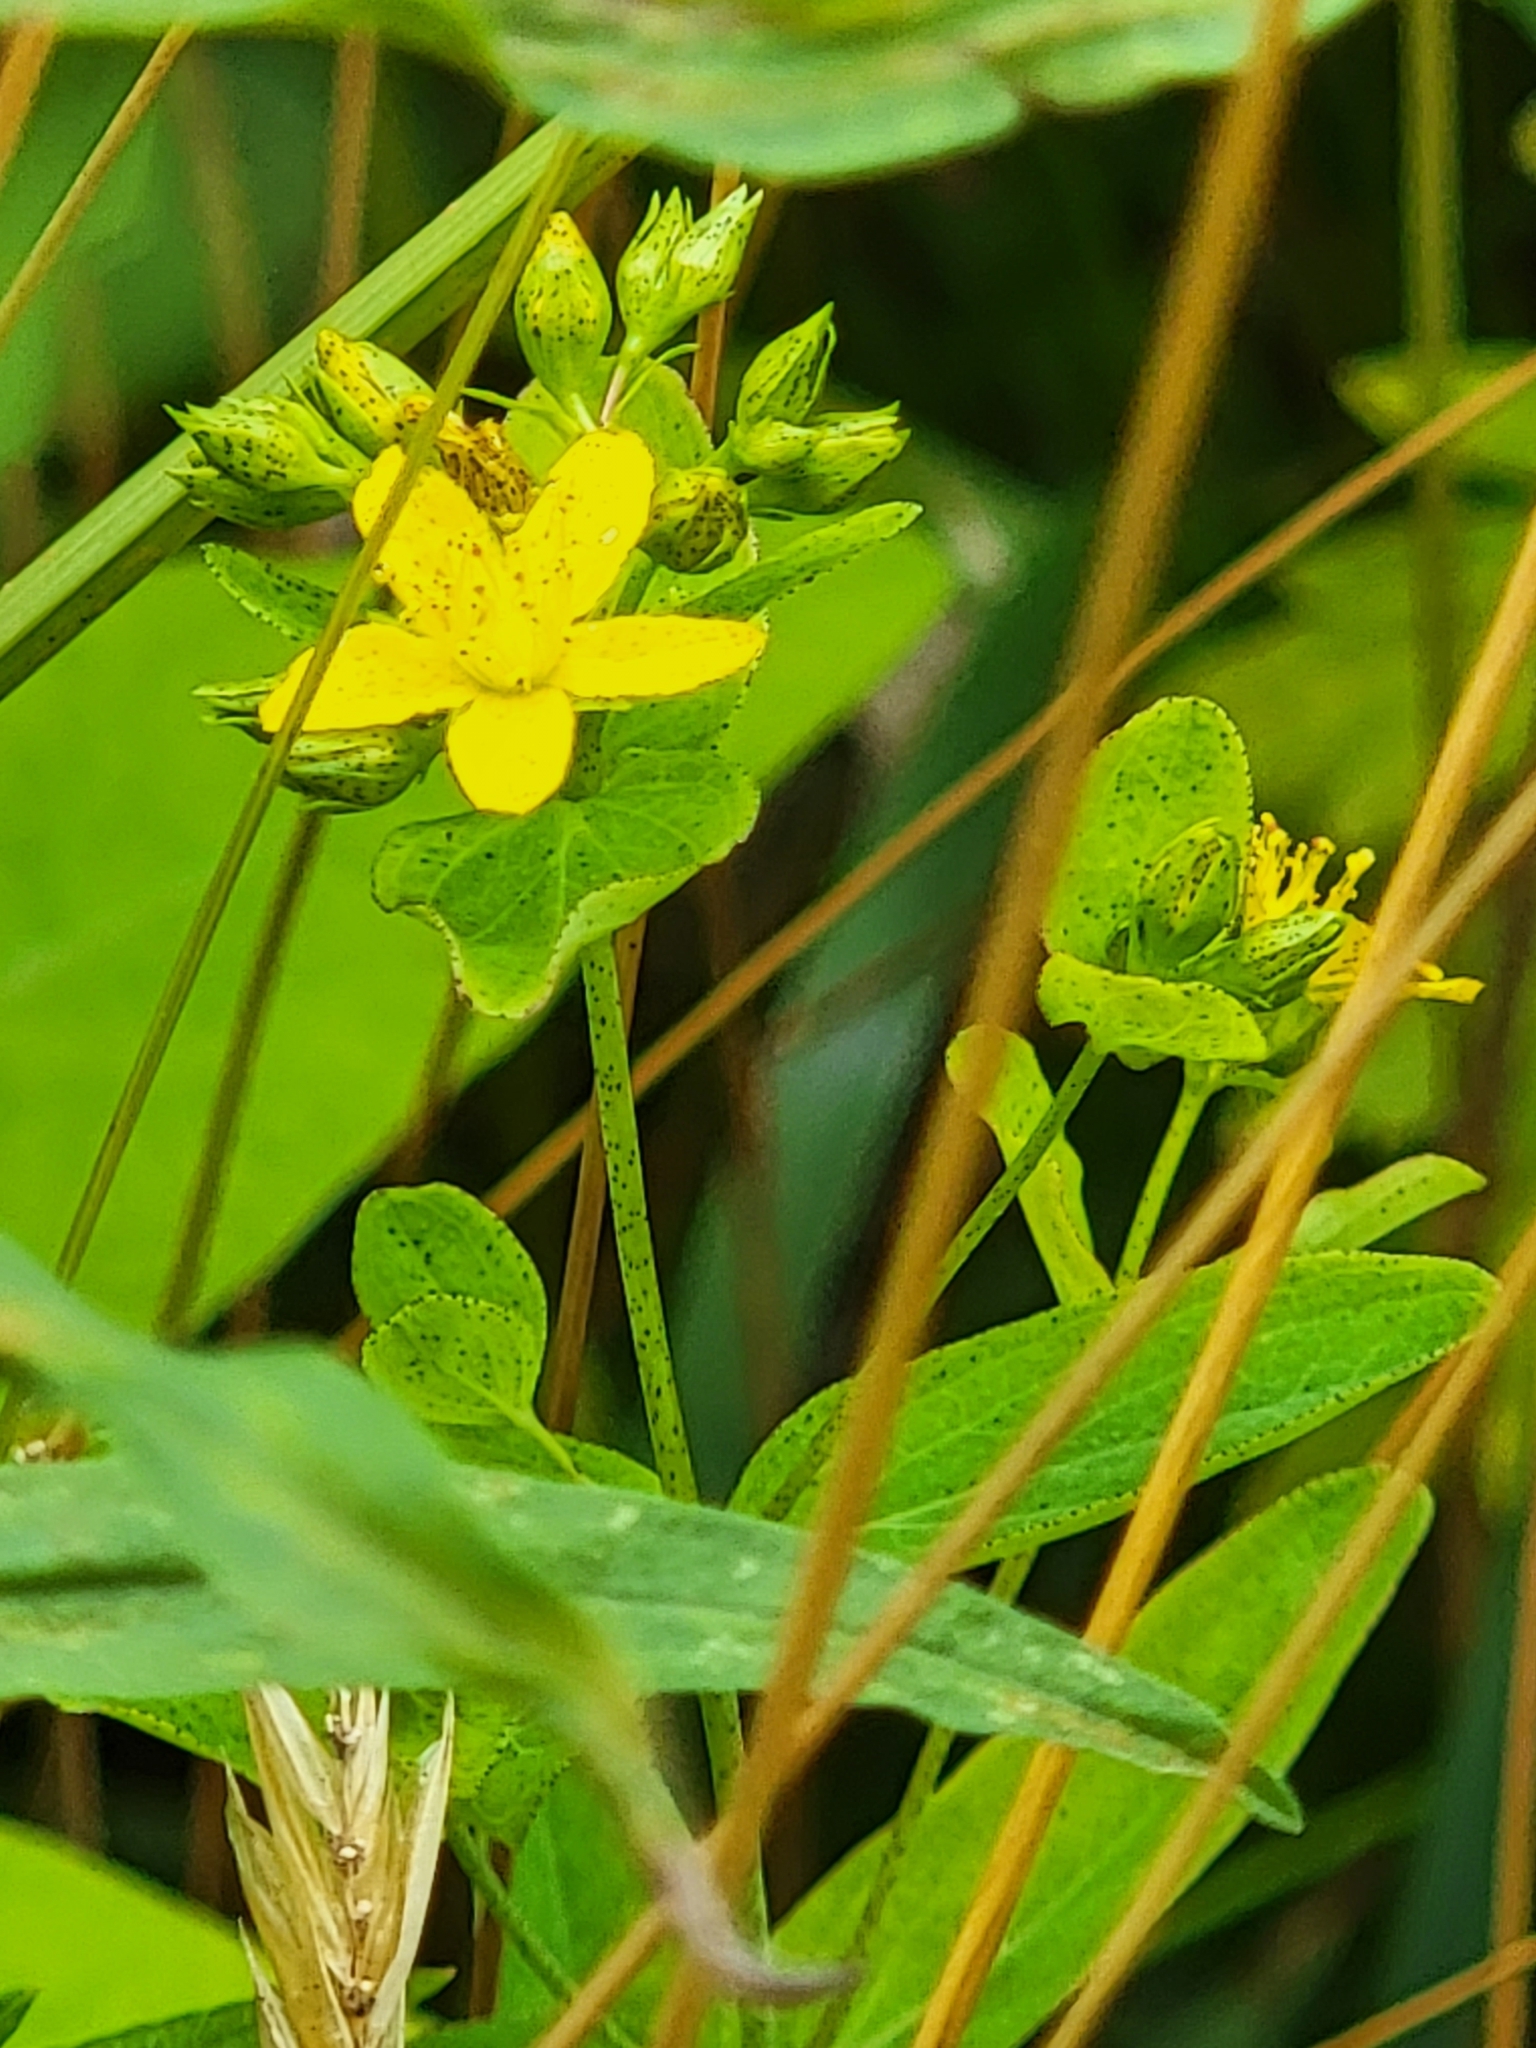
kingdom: Plantae
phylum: Tracheophyta
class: Magnoliopsida
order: Malpighiales
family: Hypericaceae
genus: Hypericum
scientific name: Hypericum punctatum
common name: Spotted st. john's-wort
